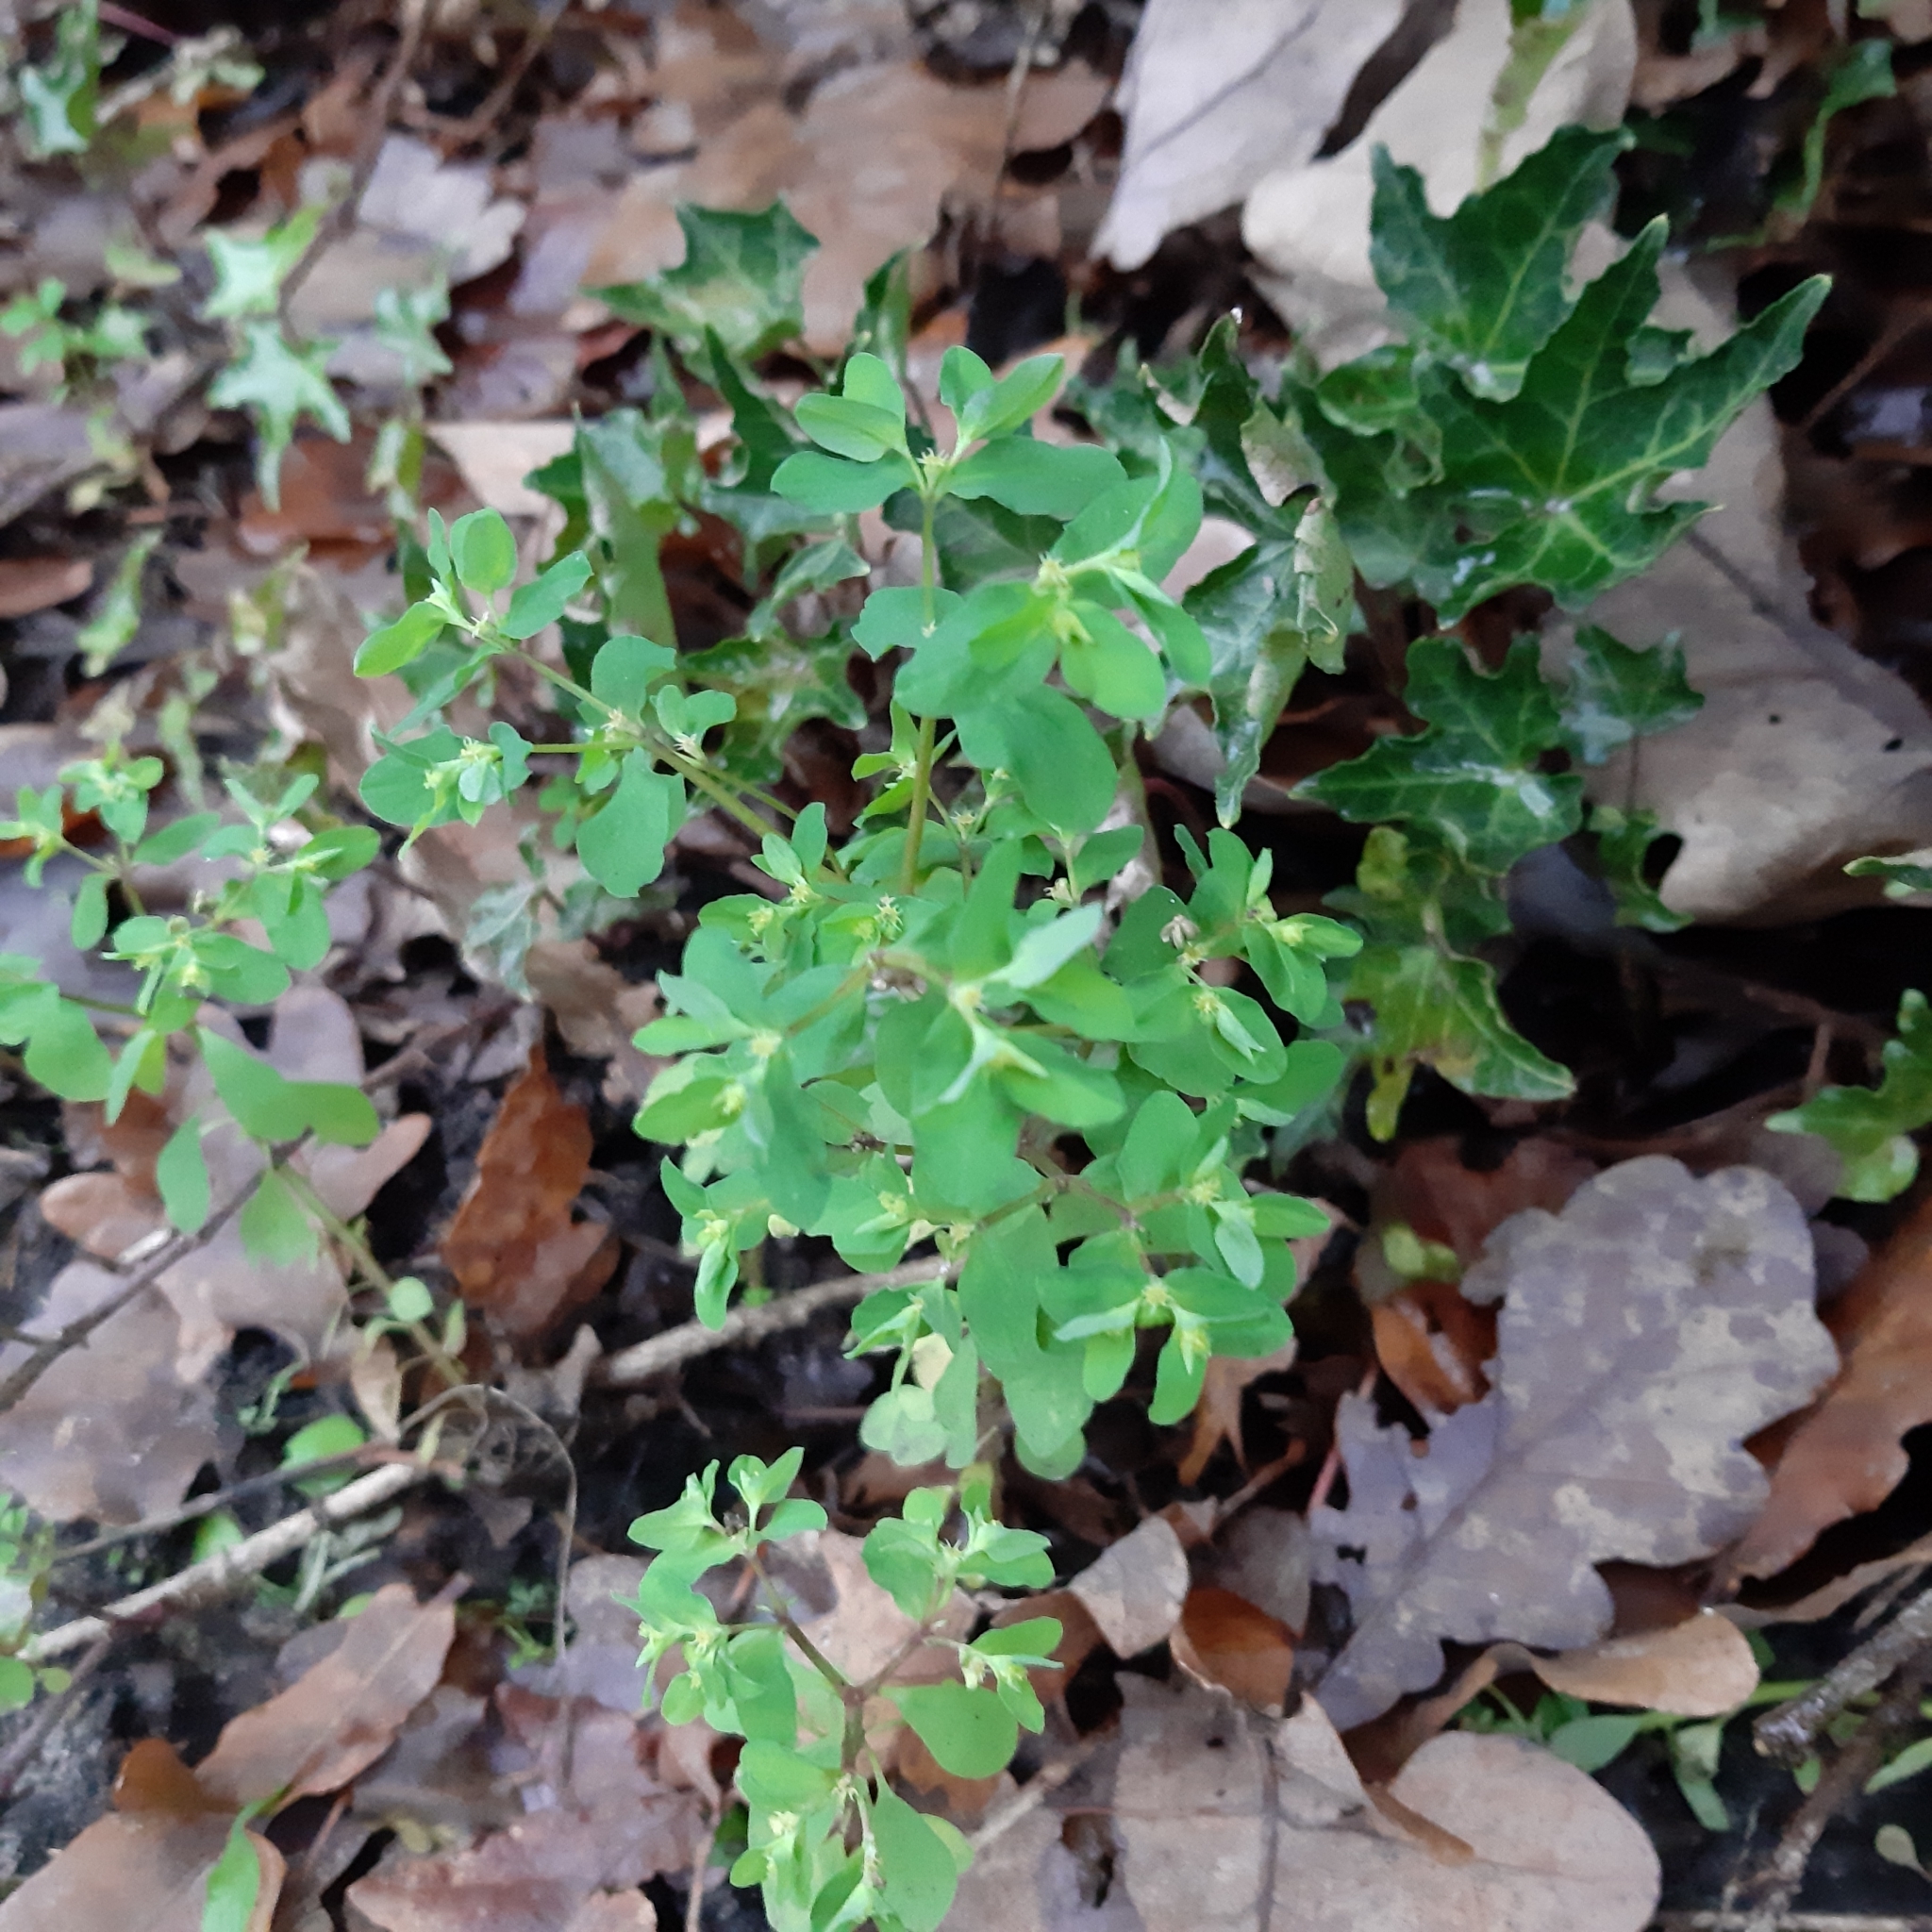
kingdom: Plantae
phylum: Tracheophyta
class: Magnoliopsida
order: Malpighiales
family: Euphorbiaceae
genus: Euphorbia
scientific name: Euphorbia peplus
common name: Petty spurge
